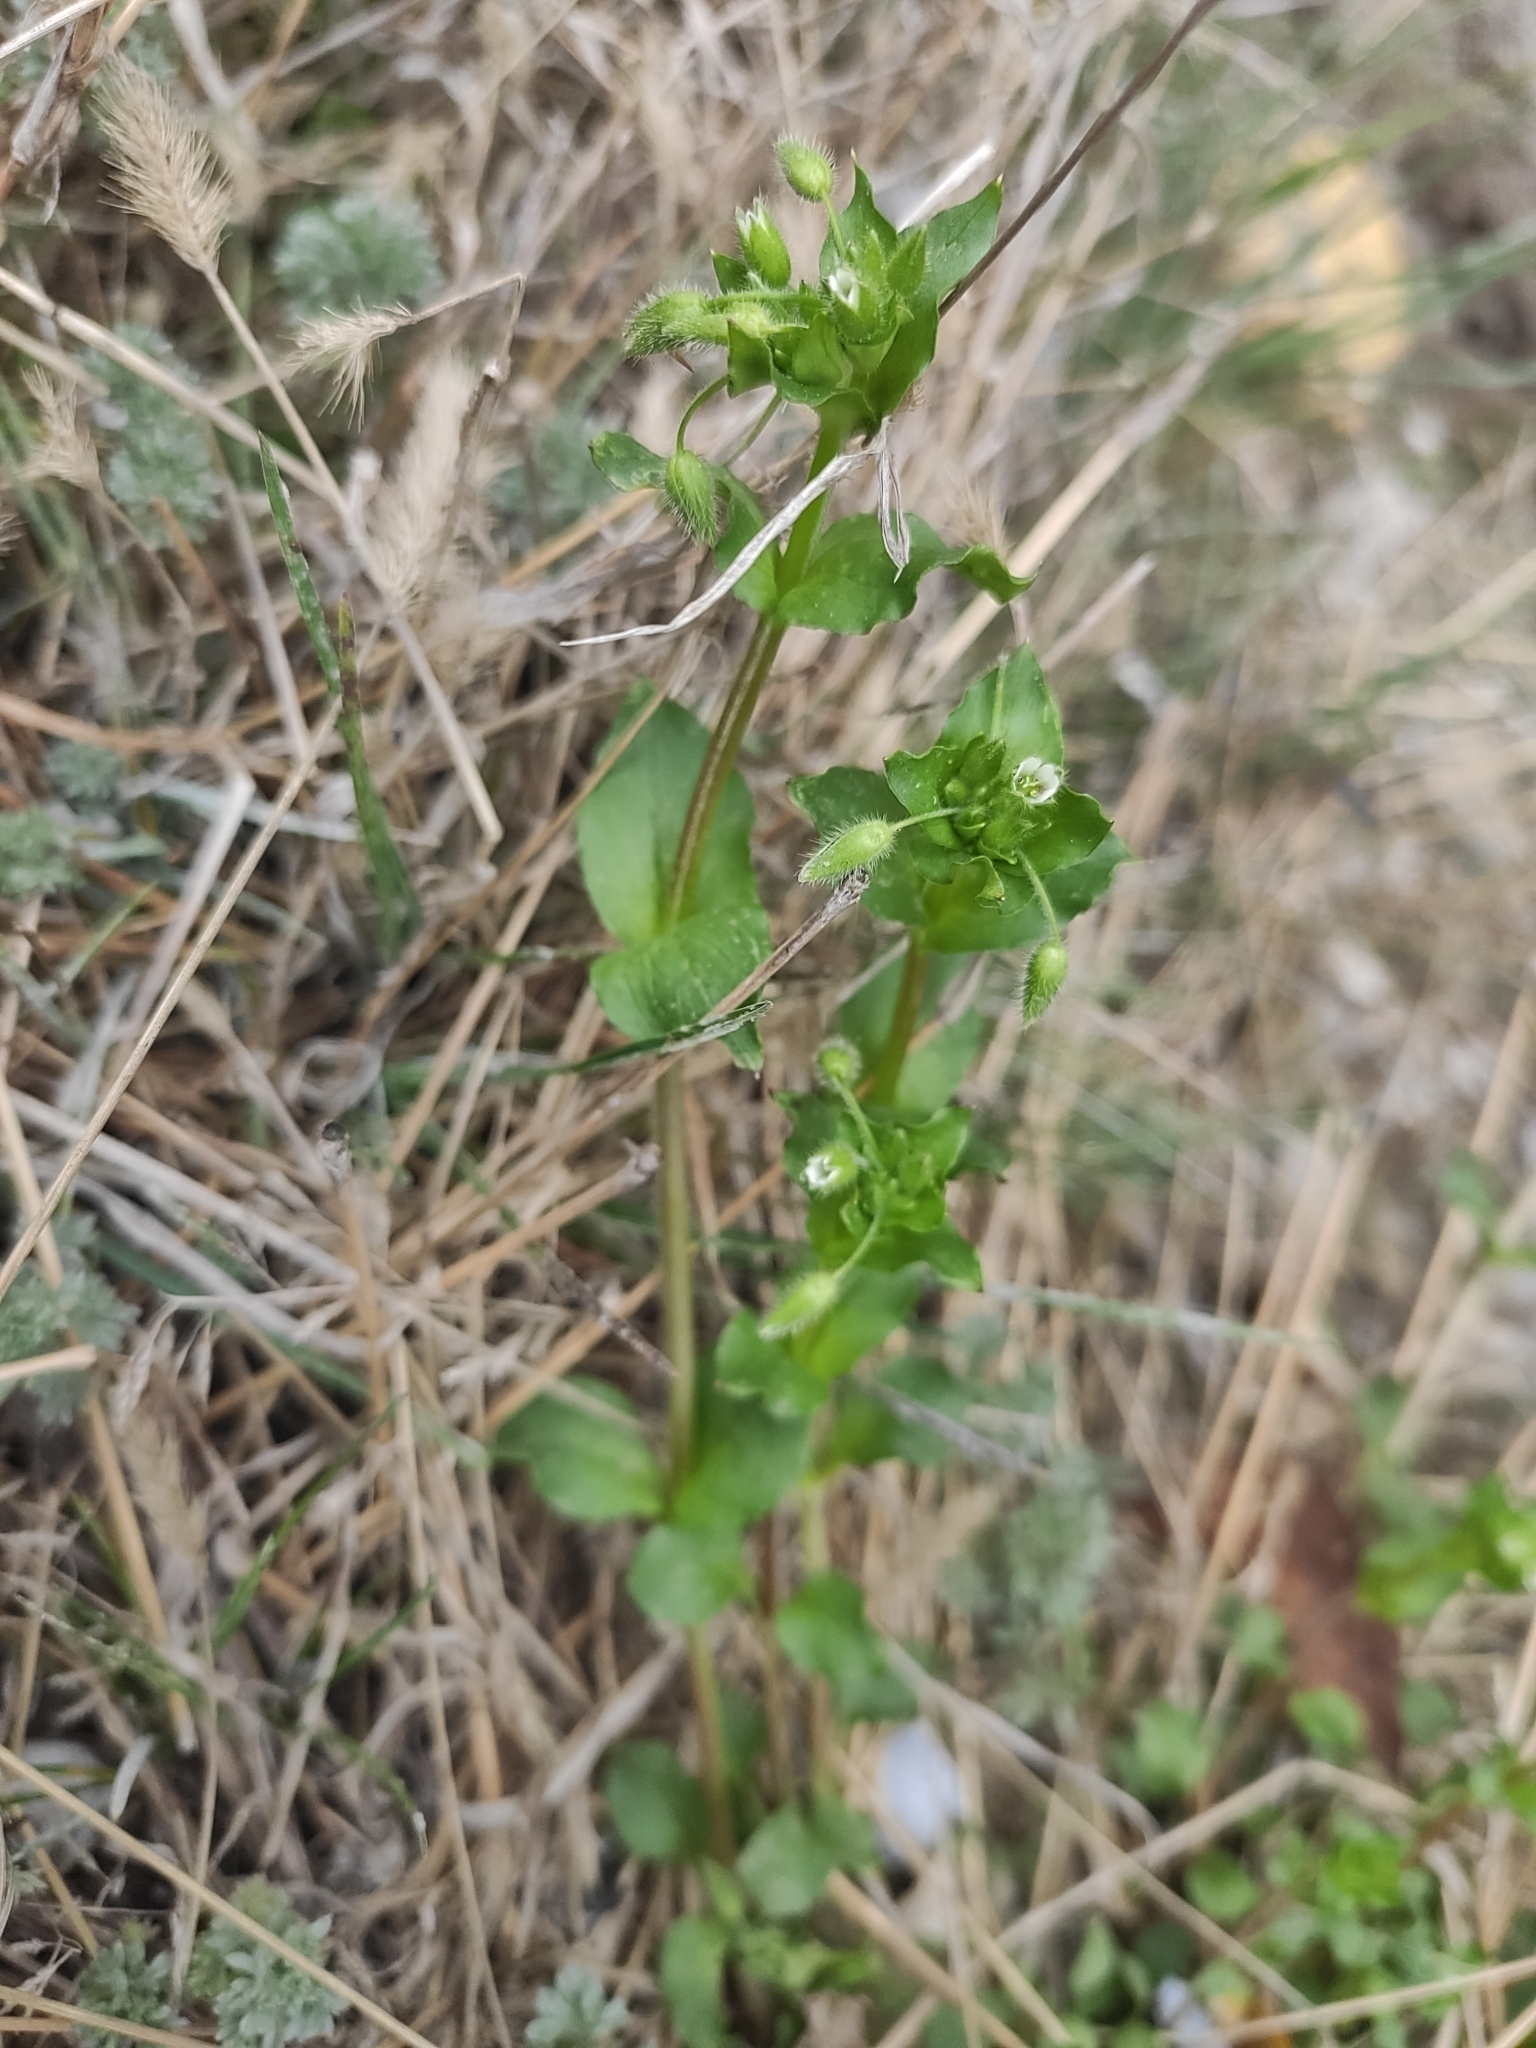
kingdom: Plantae
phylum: Tracheophyta
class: Magnoliopsida
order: Caryophyllales
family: Caryophyllaceae
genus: Stellaria
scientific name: Stellaria media
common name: Common chickweed
